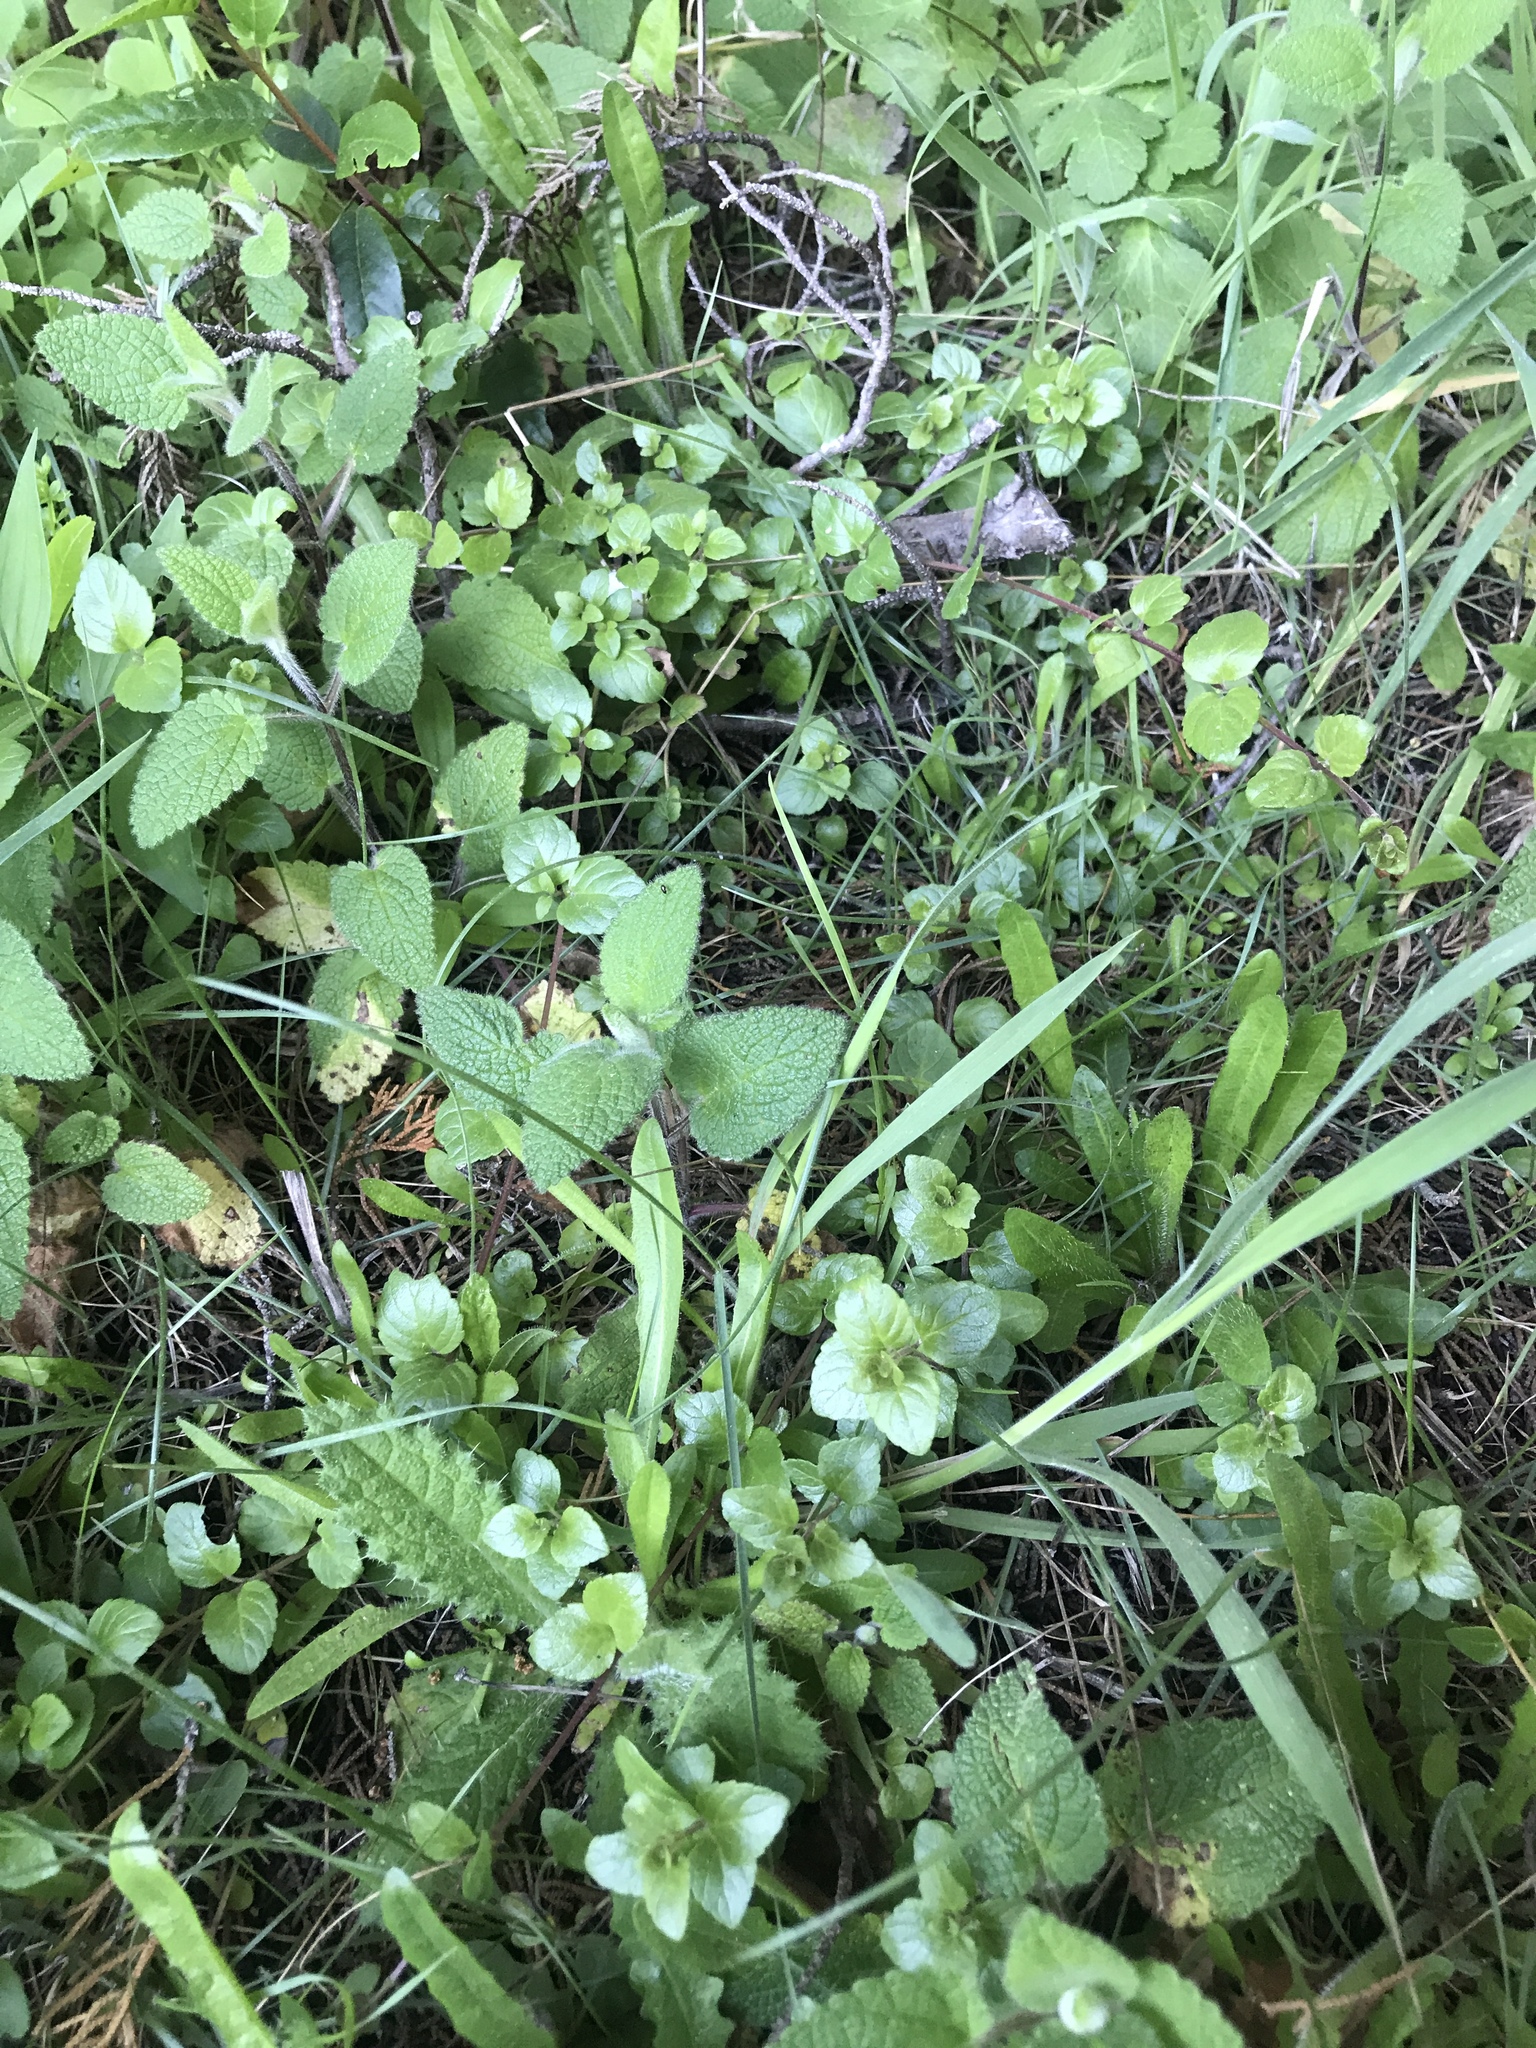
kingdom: Plantae
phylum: Tracheophyta
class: Magnoliopsida
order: Lamiales
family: Lamiaceae
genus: Micromeria
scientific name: Micromeria douglasii
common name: Yerba buena
